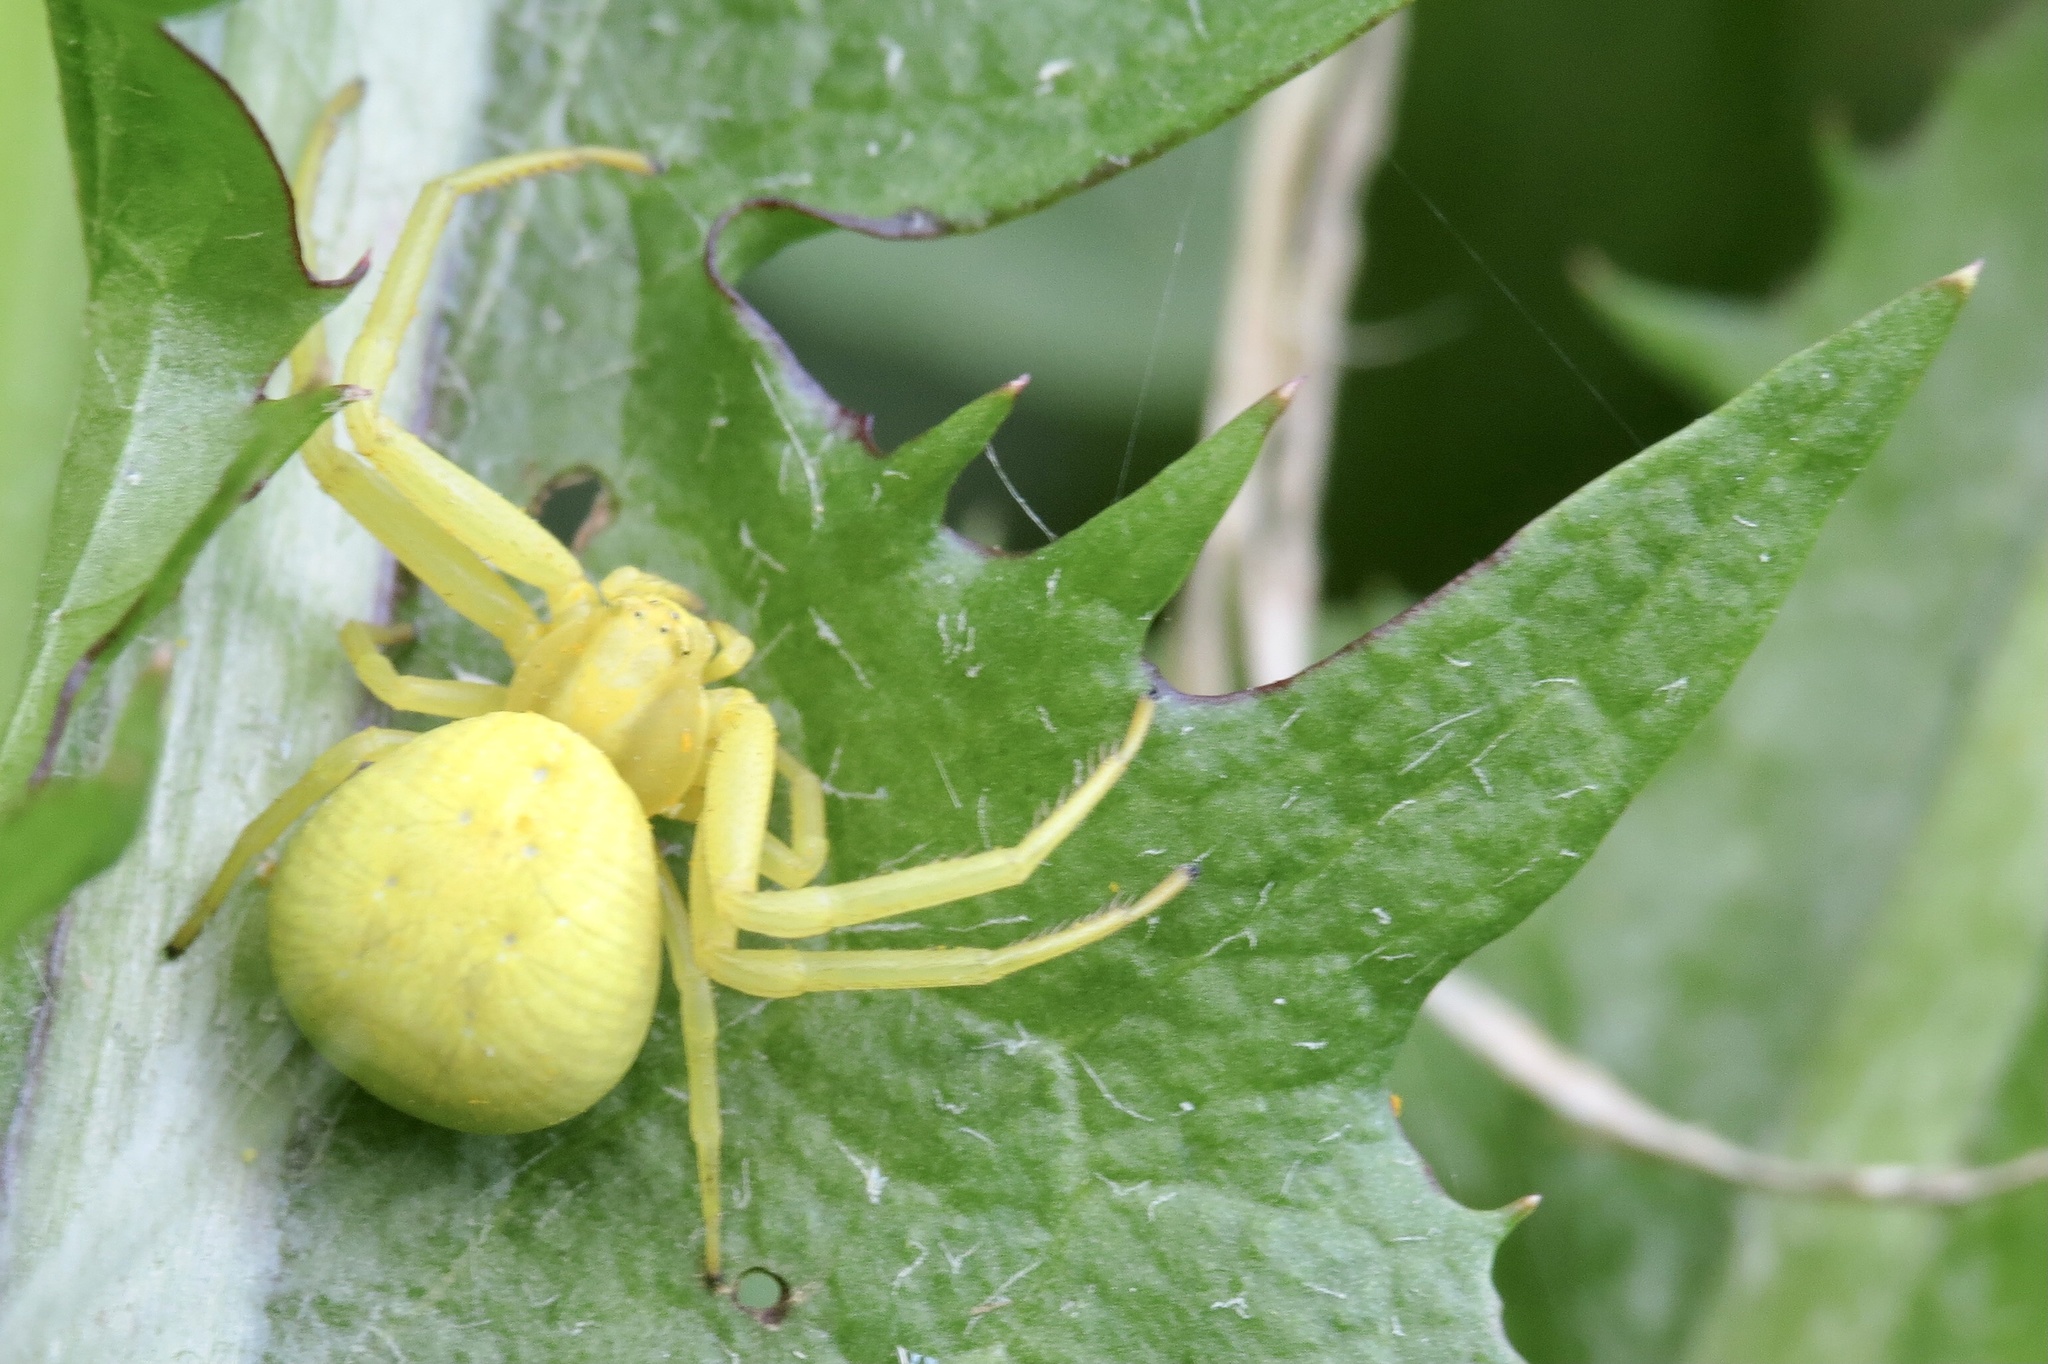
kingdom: Animalia
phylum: Arthropoda
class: Arachnida
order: Araneae
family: Thomisidae
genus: Misumena
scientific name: Misumena vatia
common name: Goldenrod crab spider
